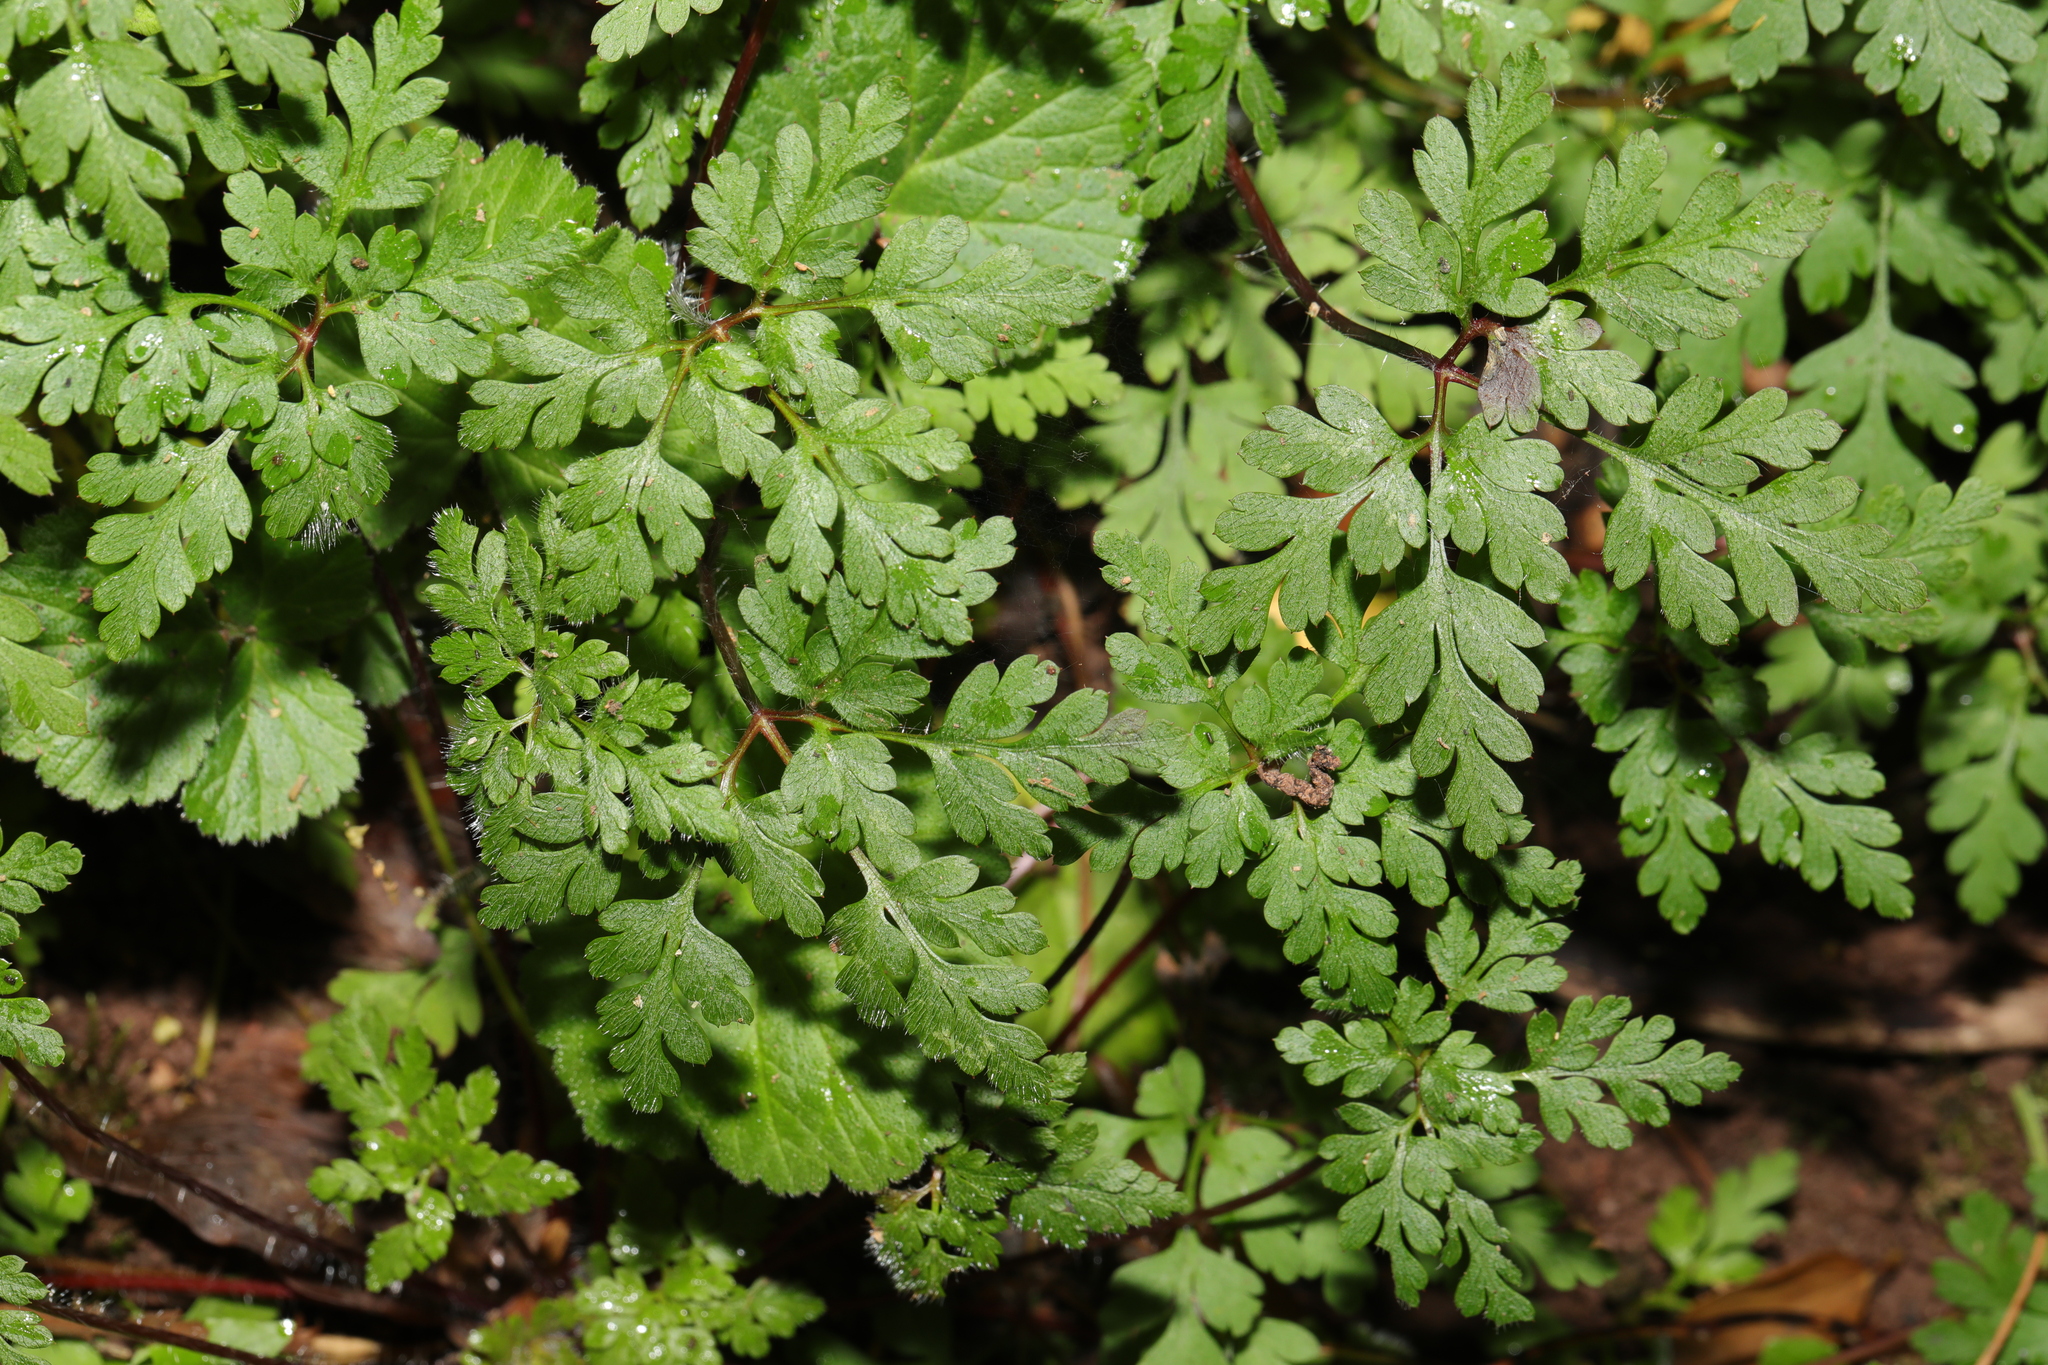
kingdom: Plantae
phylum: Tracheophyta
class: Magnoliopsida
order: Geraniales
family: Geraniaceae
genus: Geranium
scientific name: Geranium robertianum
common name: Herb-robert
